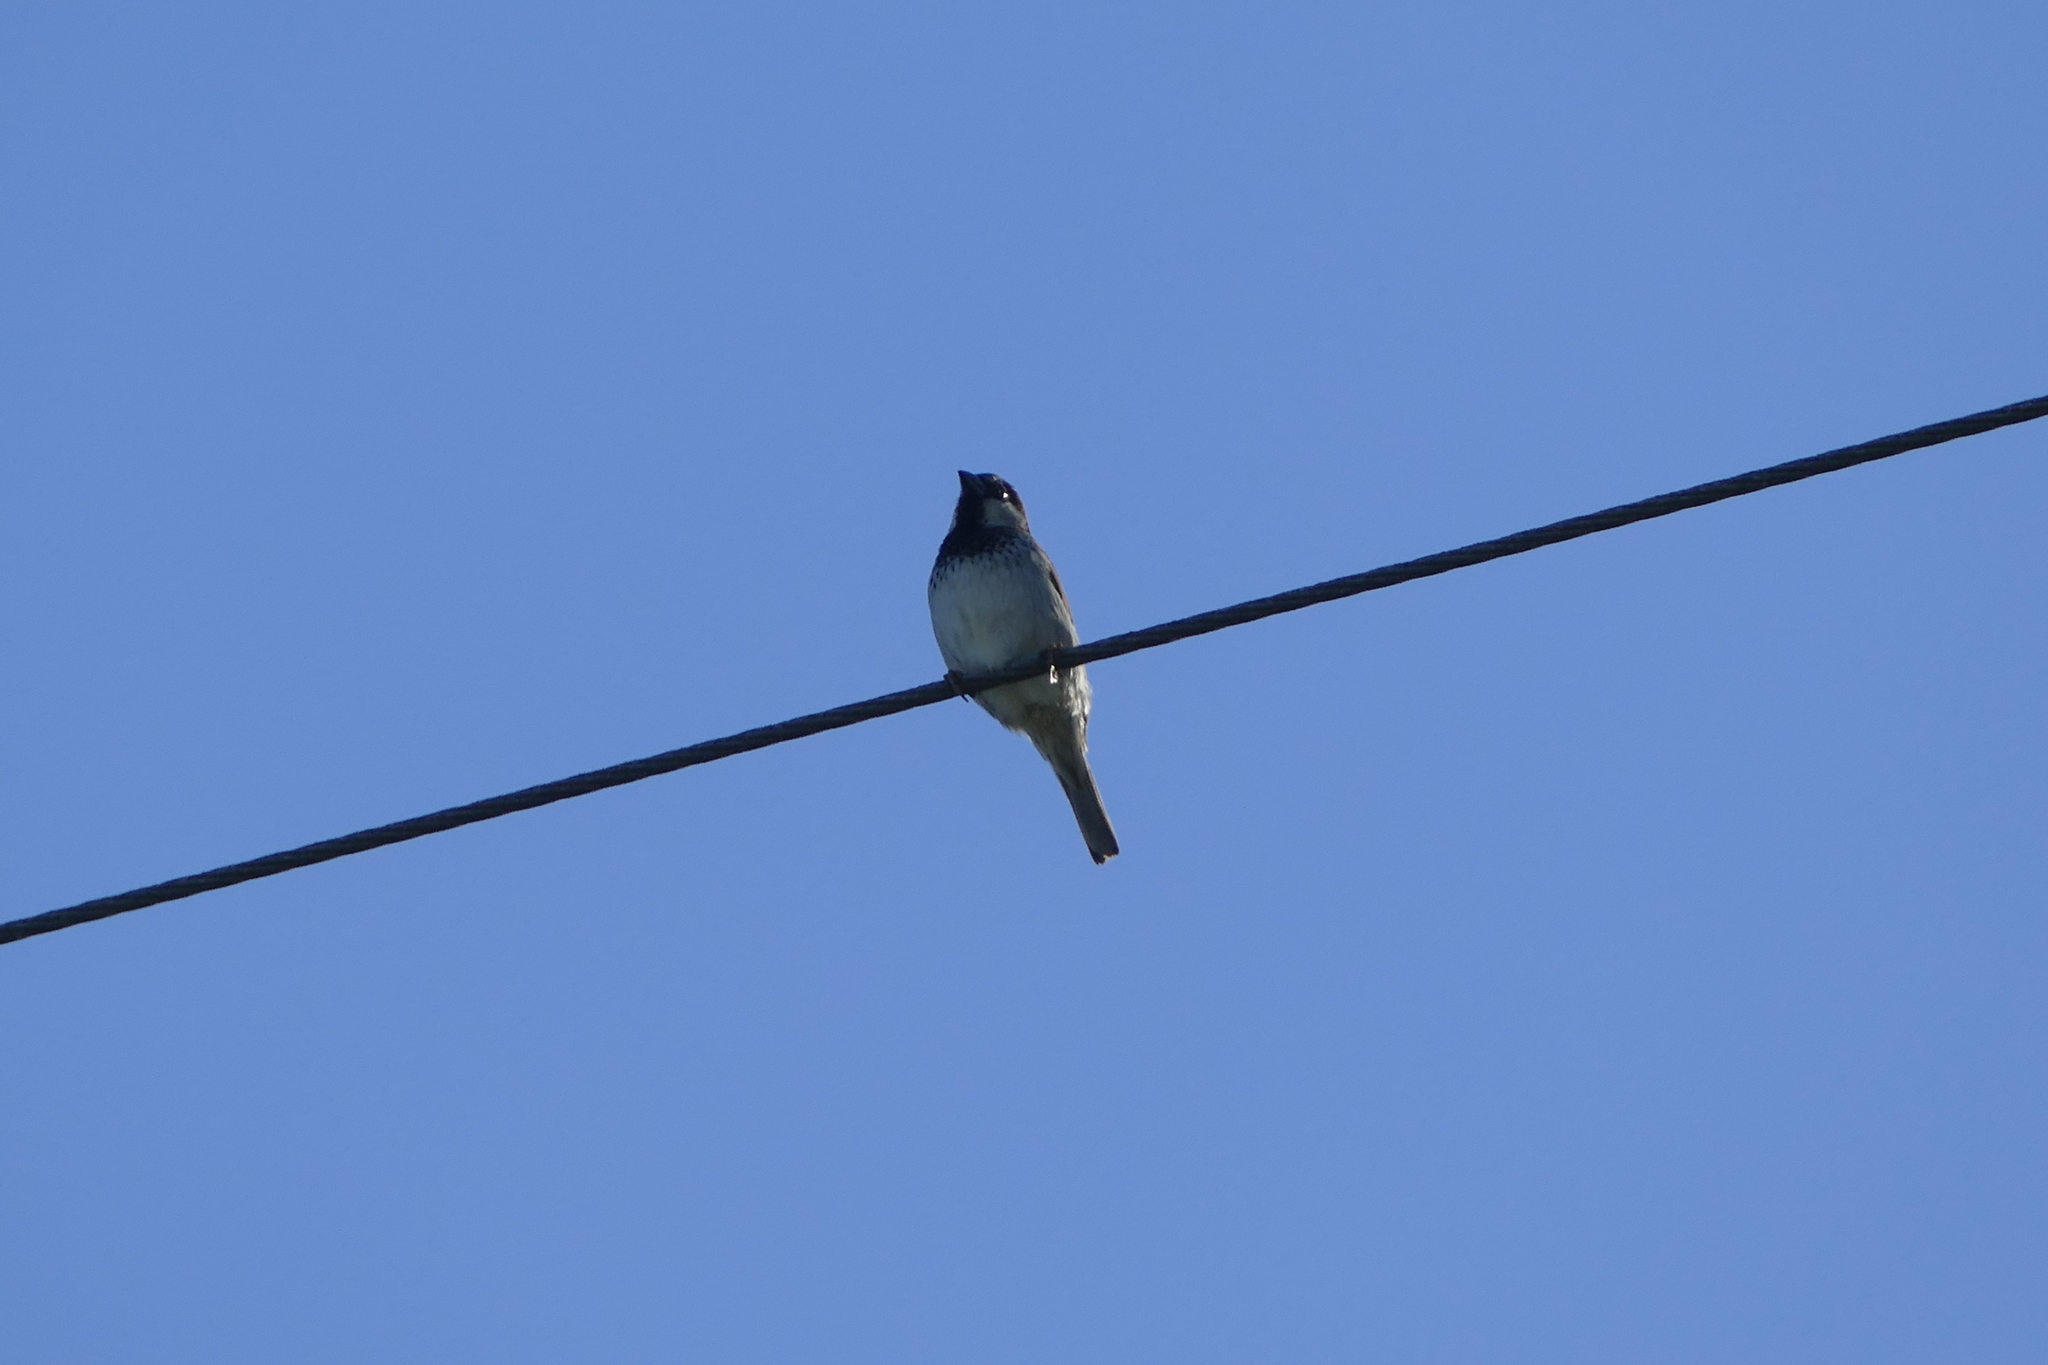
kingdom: Animalia
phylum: Chordata
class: Aves
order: Passeriformes
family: Passeridae
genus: Passer
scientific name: Passer domesticus
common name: House sparrow
